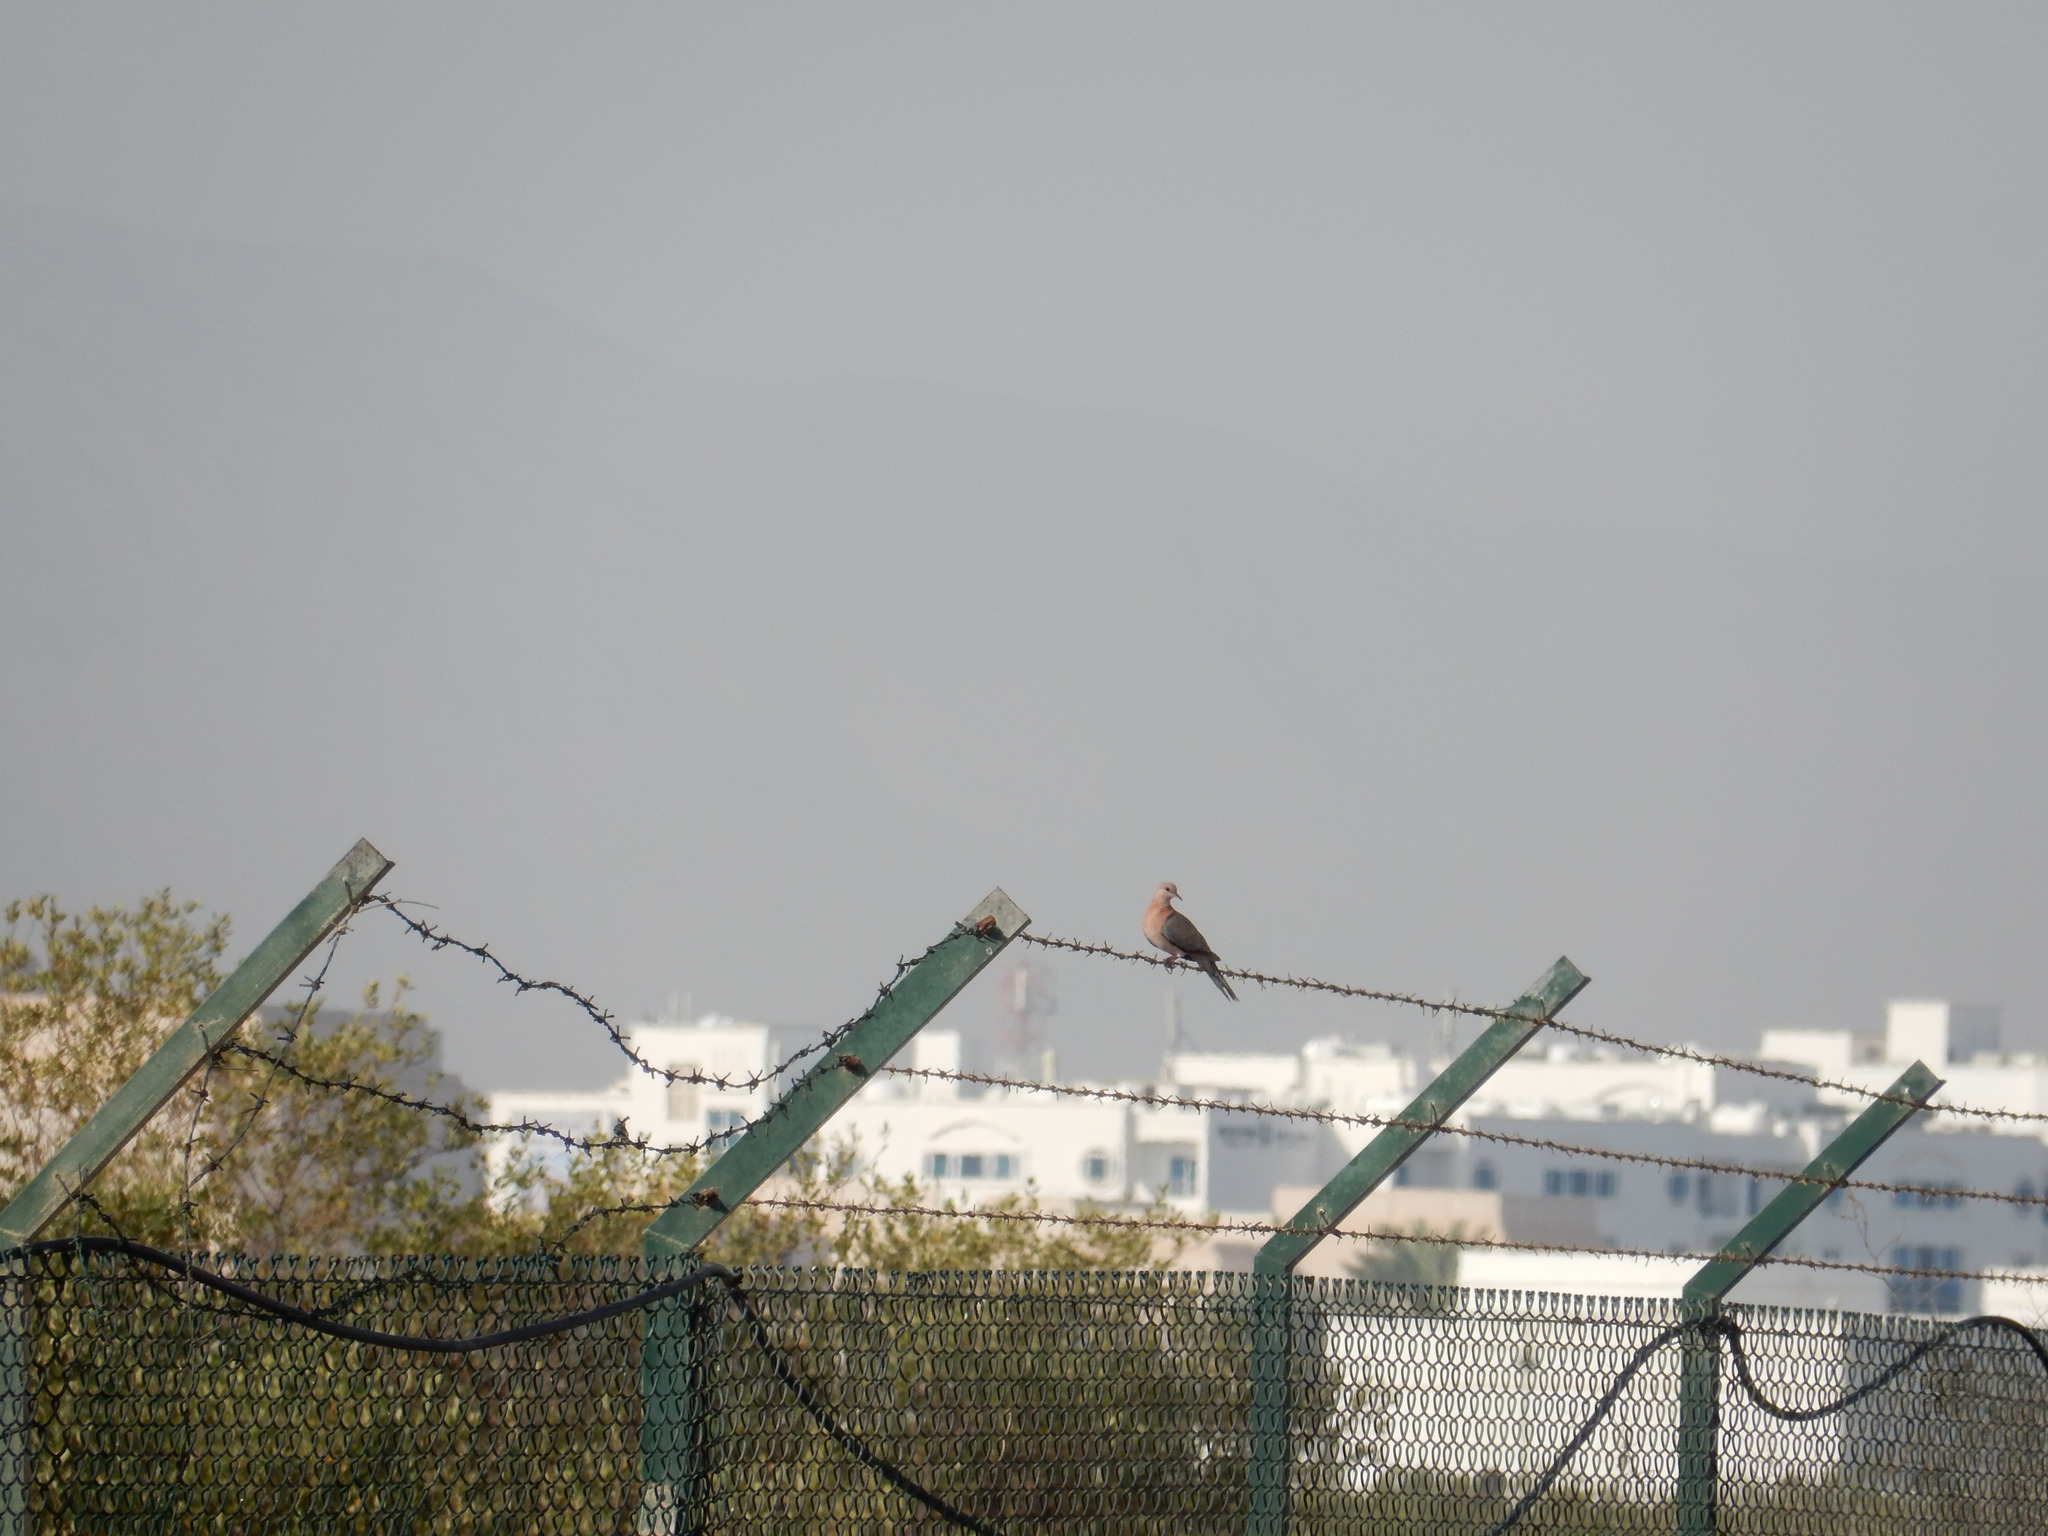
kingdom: Animalia
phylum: Chordata
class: Aves
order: Columbiformes
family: Columbidae
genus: Spilopelia
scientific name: Spilopelia senegalensis
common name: Laughing dove
